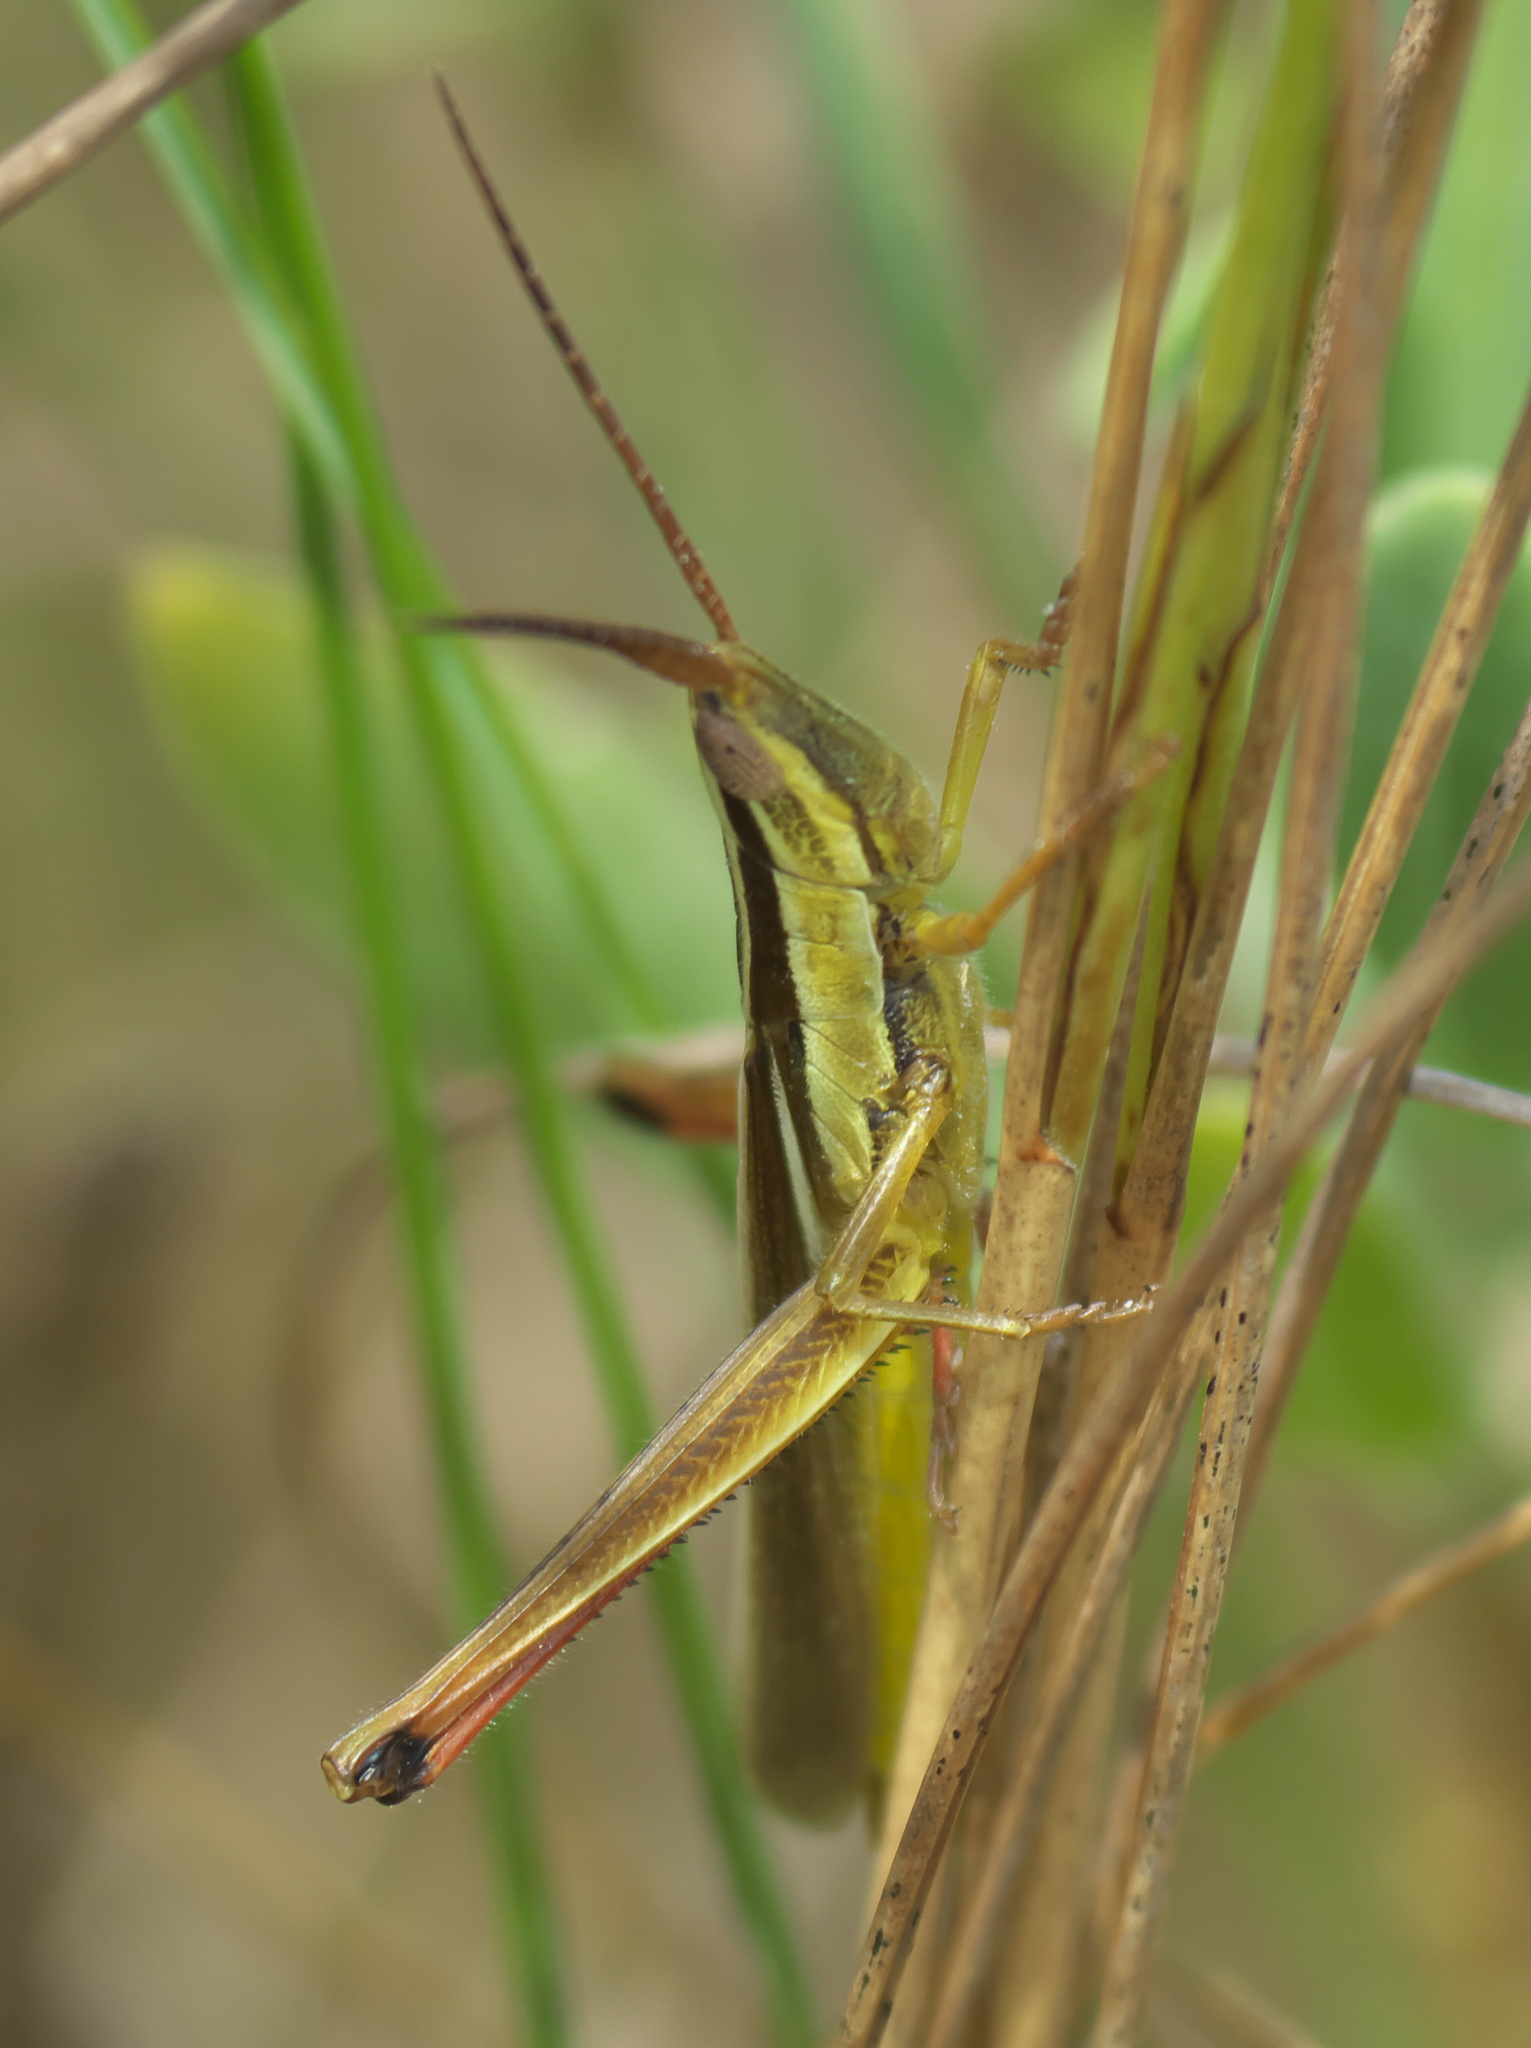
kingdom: Animalia
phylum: Arthropoda
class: Insecta
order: Orthoptera
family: Acrididae
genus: Mermiria
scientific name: Mermiria intertexta
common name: Eastern mermiria grasshopper
